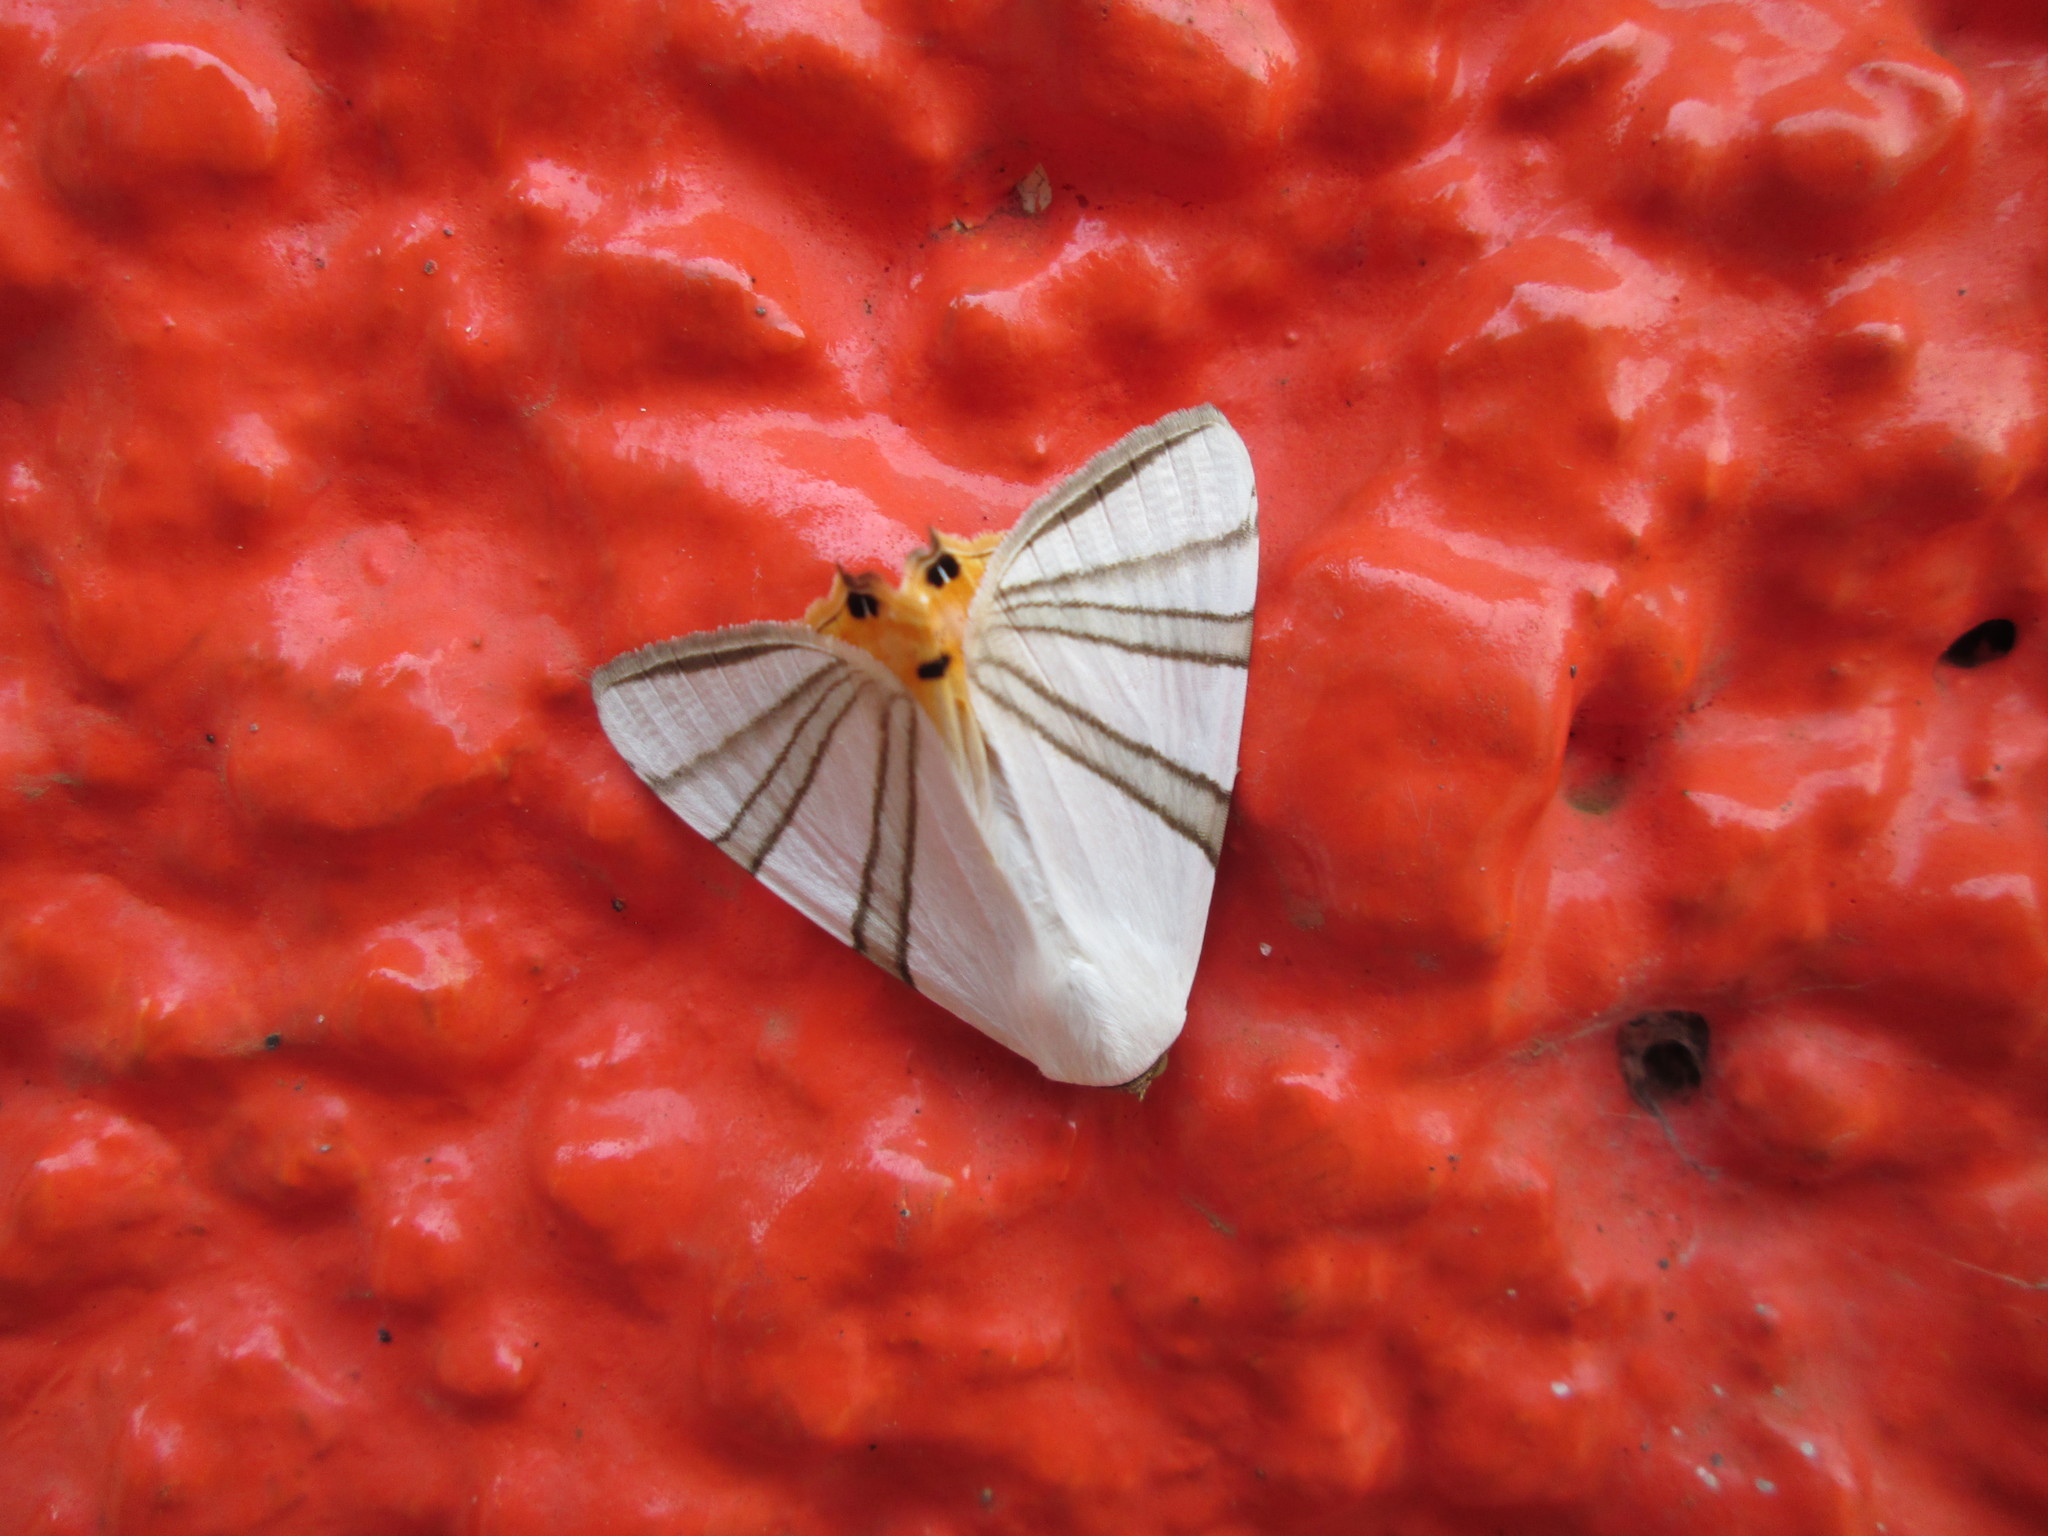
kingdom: Animalia
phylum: Arthropoda
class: Insecta
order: Lepidoptera
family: Erebidae
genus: Eulepidotis
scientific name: Eulepidotis geminata
